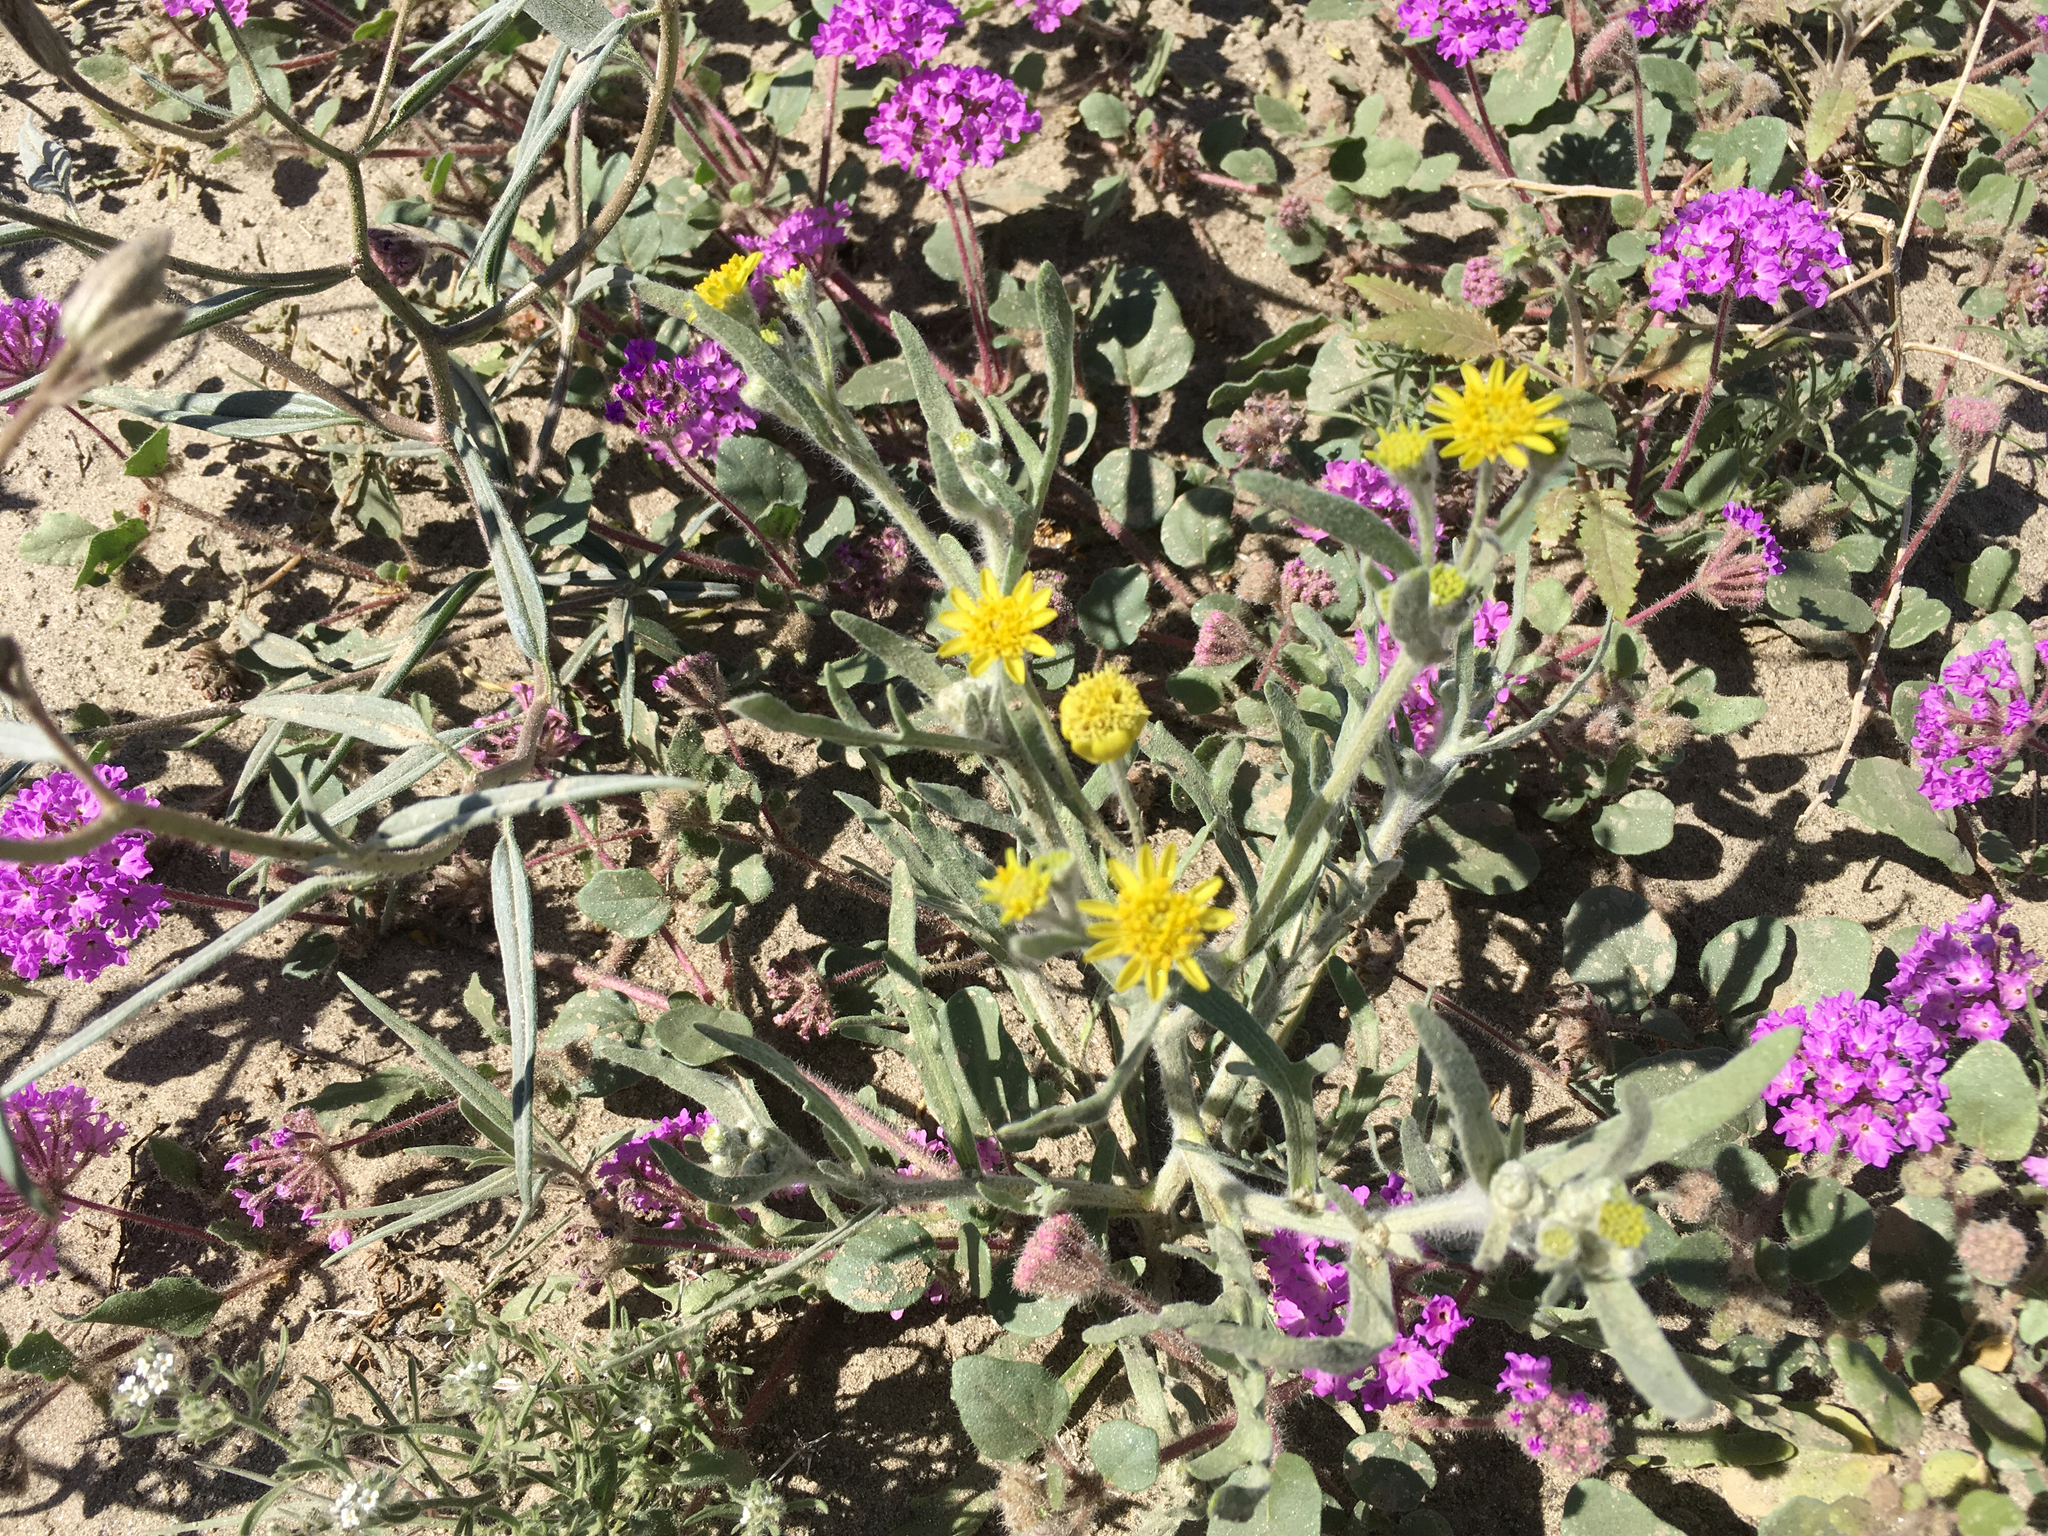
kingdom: Plantae
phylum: Tracheophyta
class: Magnoliopsida
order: Asterales
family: Asteraceae
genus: Baileya
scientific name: Baileya pauciradiata
